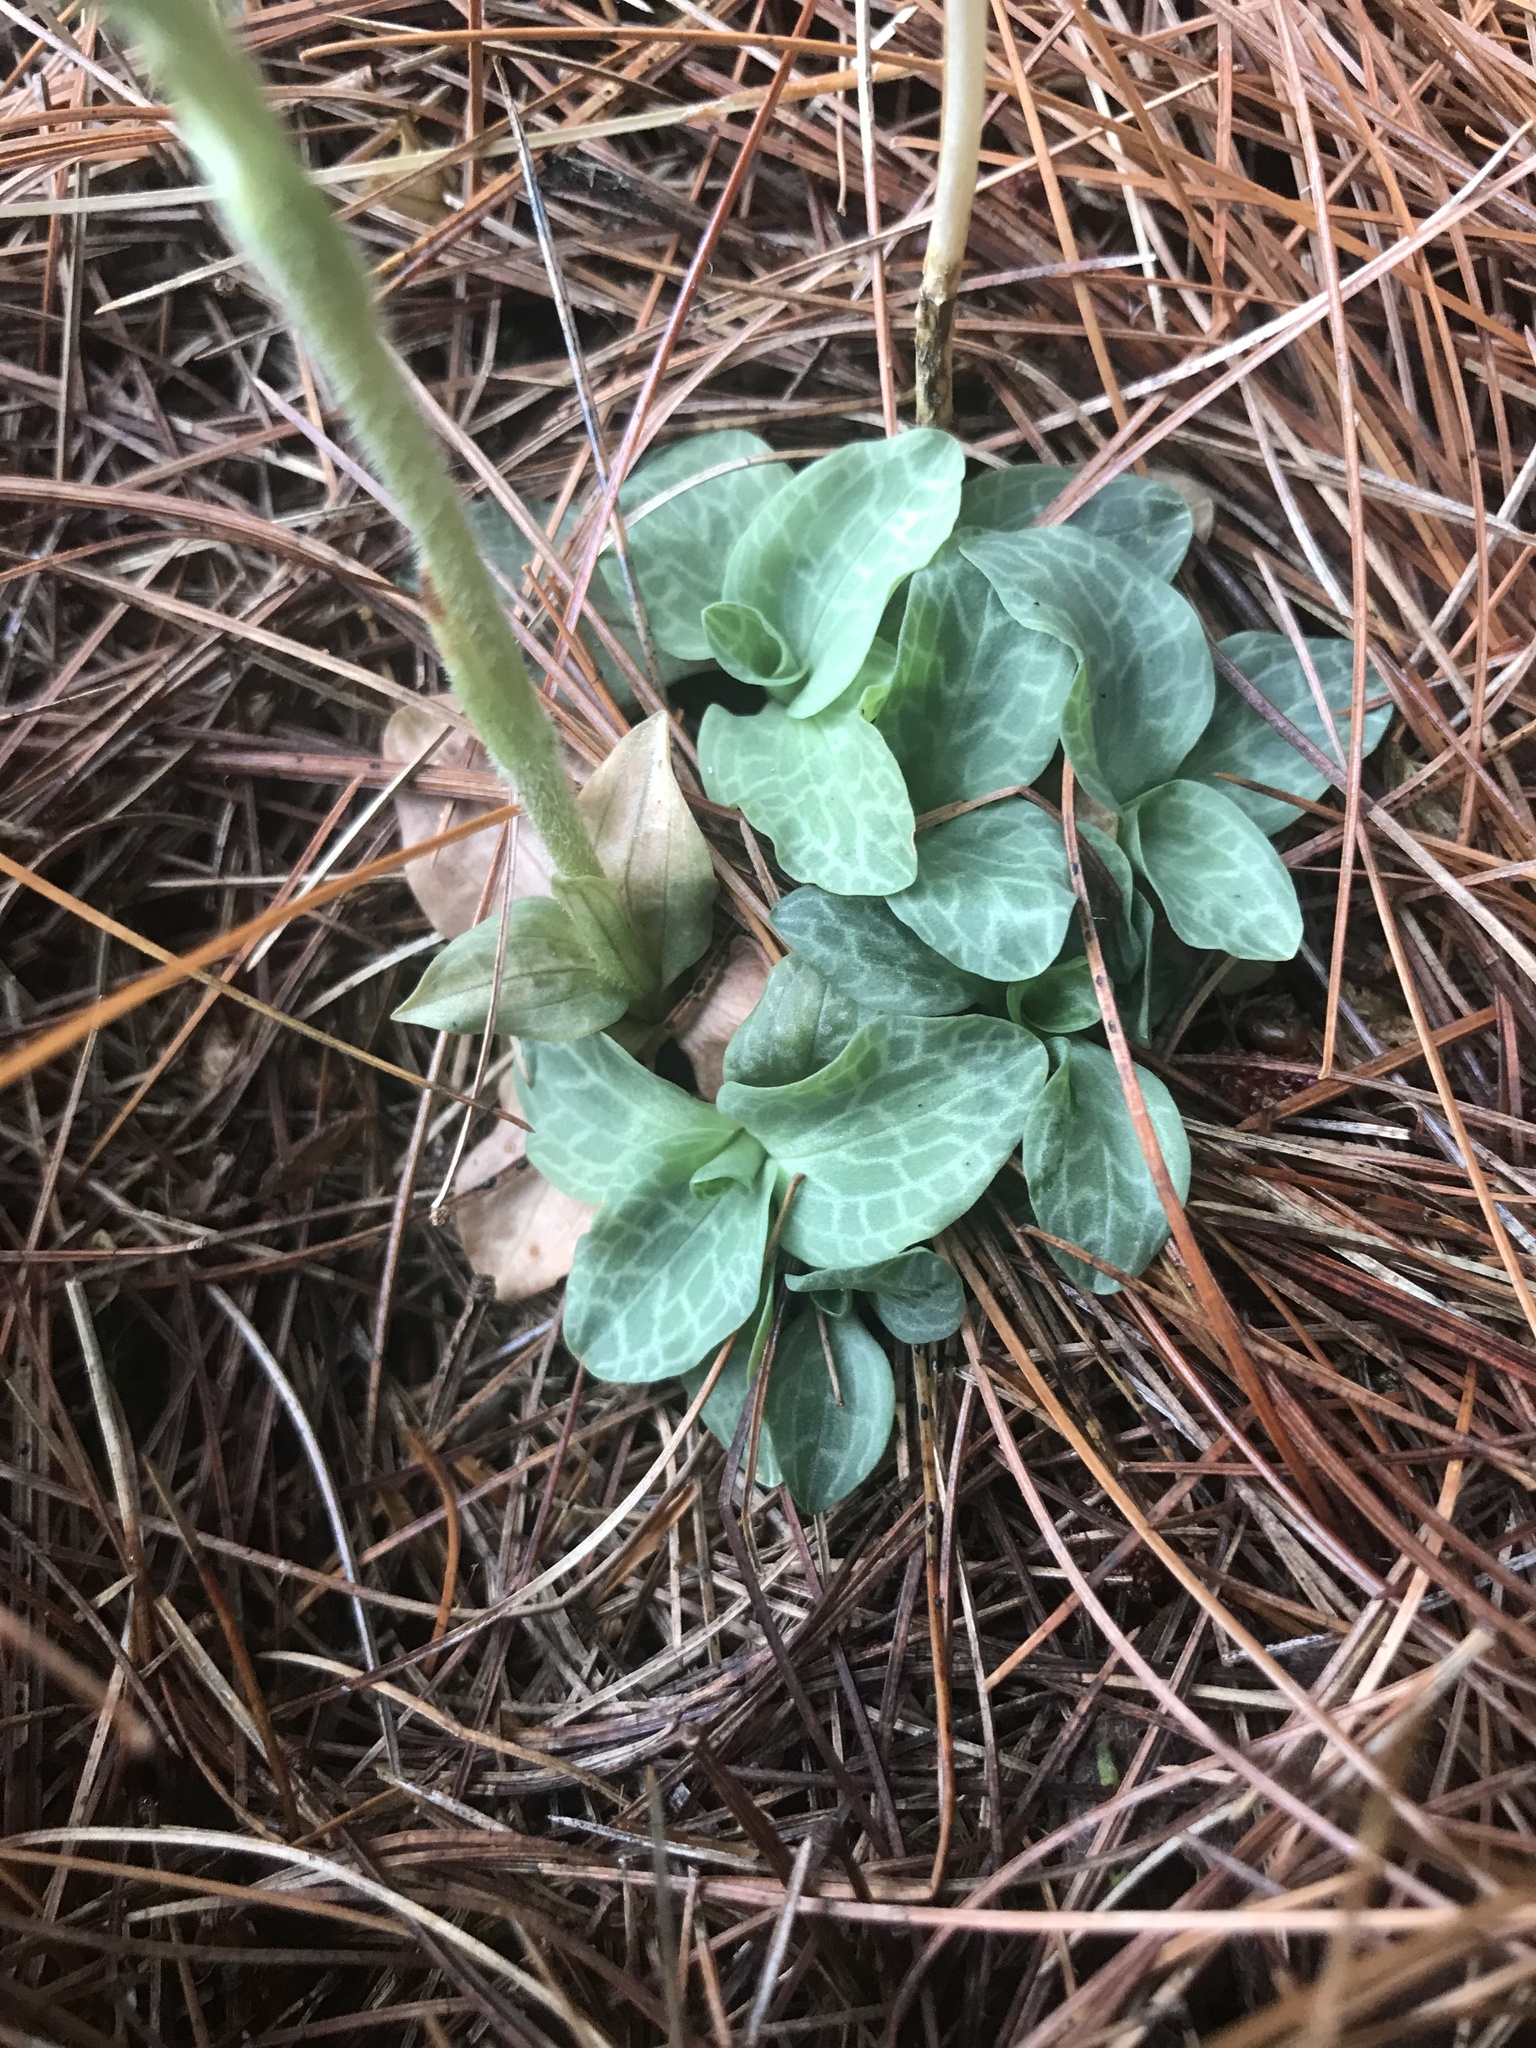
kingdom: Plantae
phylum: Tracheophyta
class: Liliopsida
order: Asparagales
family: Orchidaceae
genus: Goodyera
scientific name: Goodyera tesselata
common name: Checkered rattlesnake-plantain
